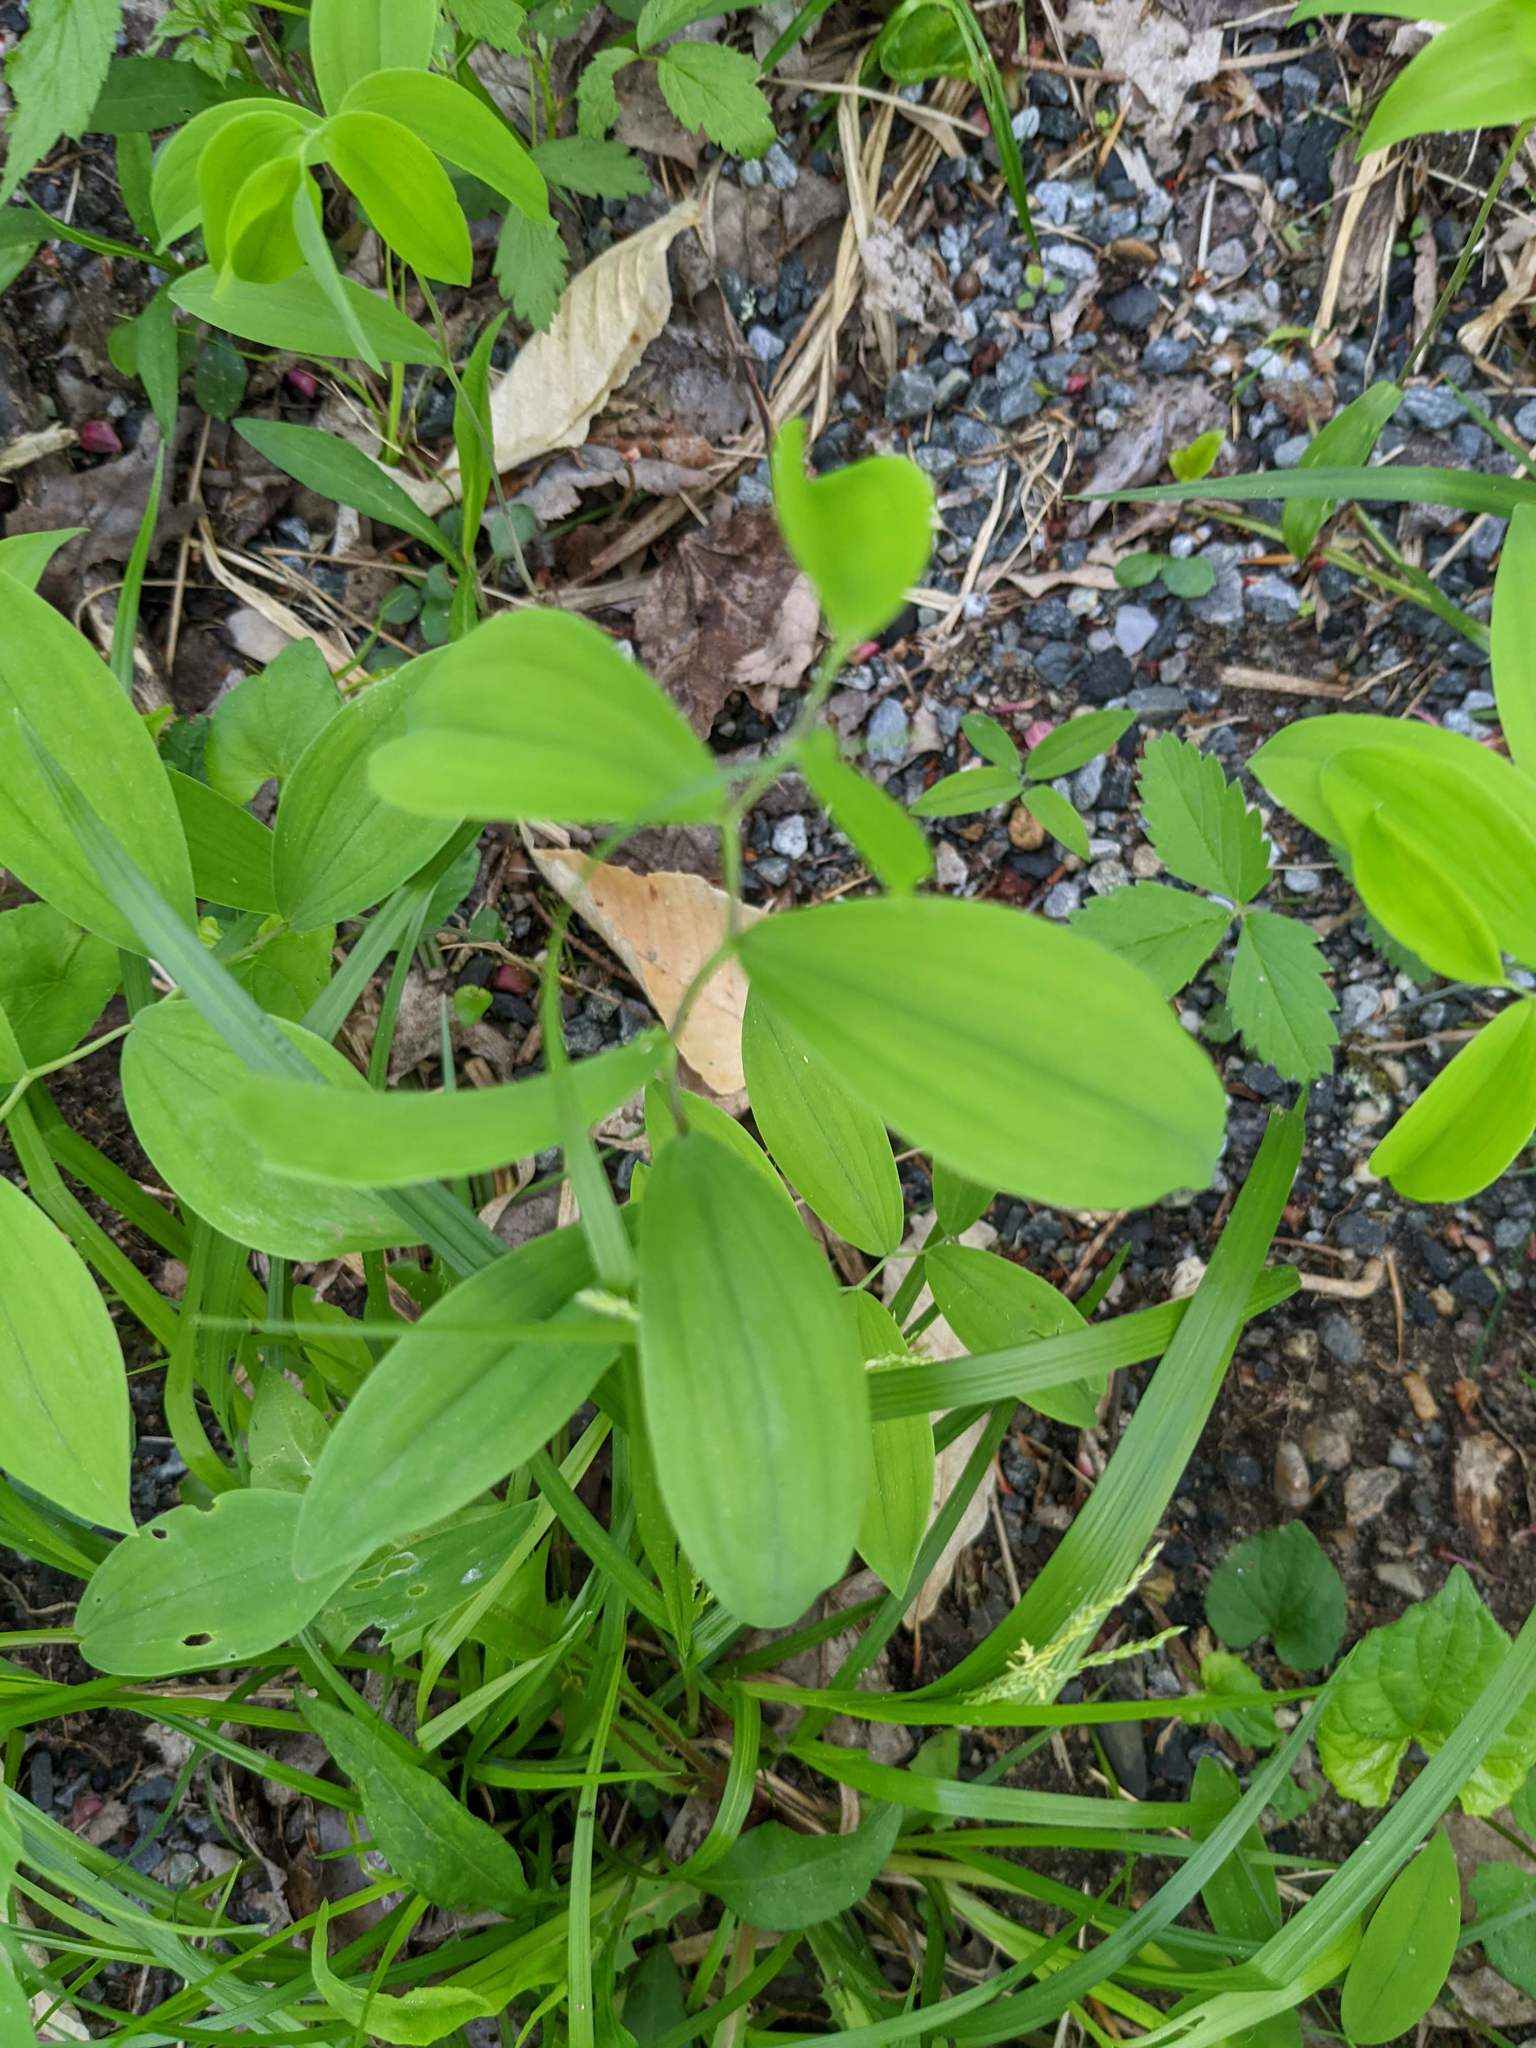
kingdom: Plantae
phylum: Tracheophyta
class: Liliopsida
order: Liliales
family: Colchicaceae
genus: Uvularia
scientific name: Uvularia sessilifolia
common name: Straw-lily
